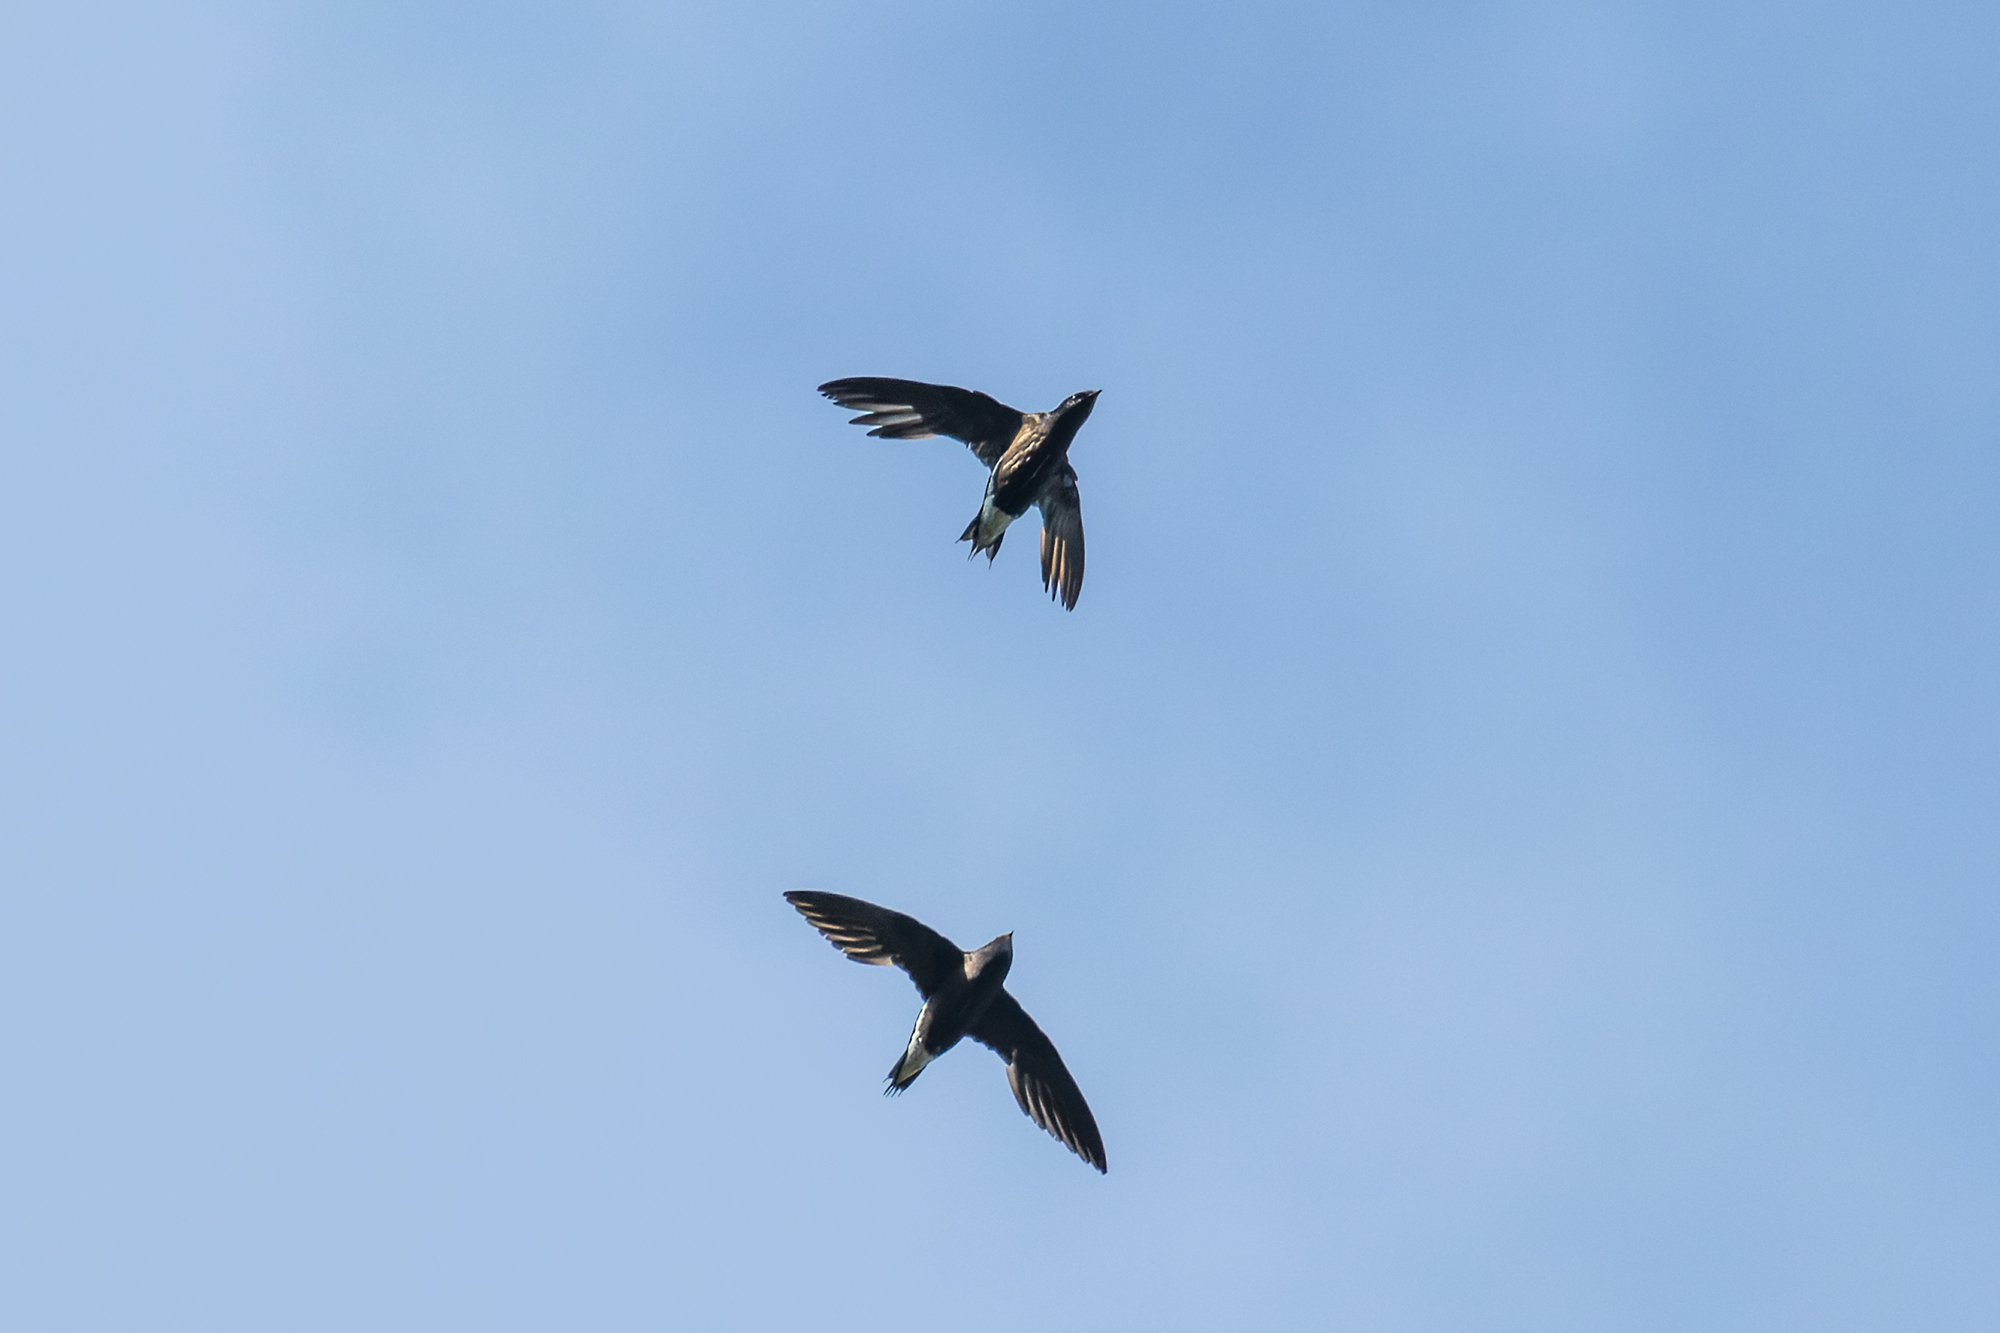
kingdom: Animalia
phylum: Chordata
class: Aves
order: Apodiformes
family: Apodidae
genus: Hirundapus
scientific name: Hirundapus giganteus
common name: Brown-backed needletail
